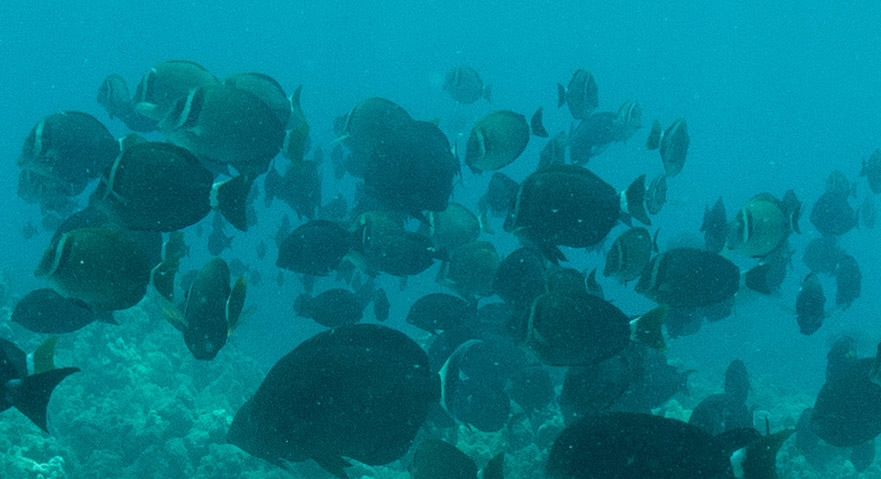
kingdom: Animalia
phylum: Chordata
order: Perciformes
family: Acanthuridae
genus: Acanthurus
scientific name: Acanthurus leucopareius
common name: Head-band surgeonfish
